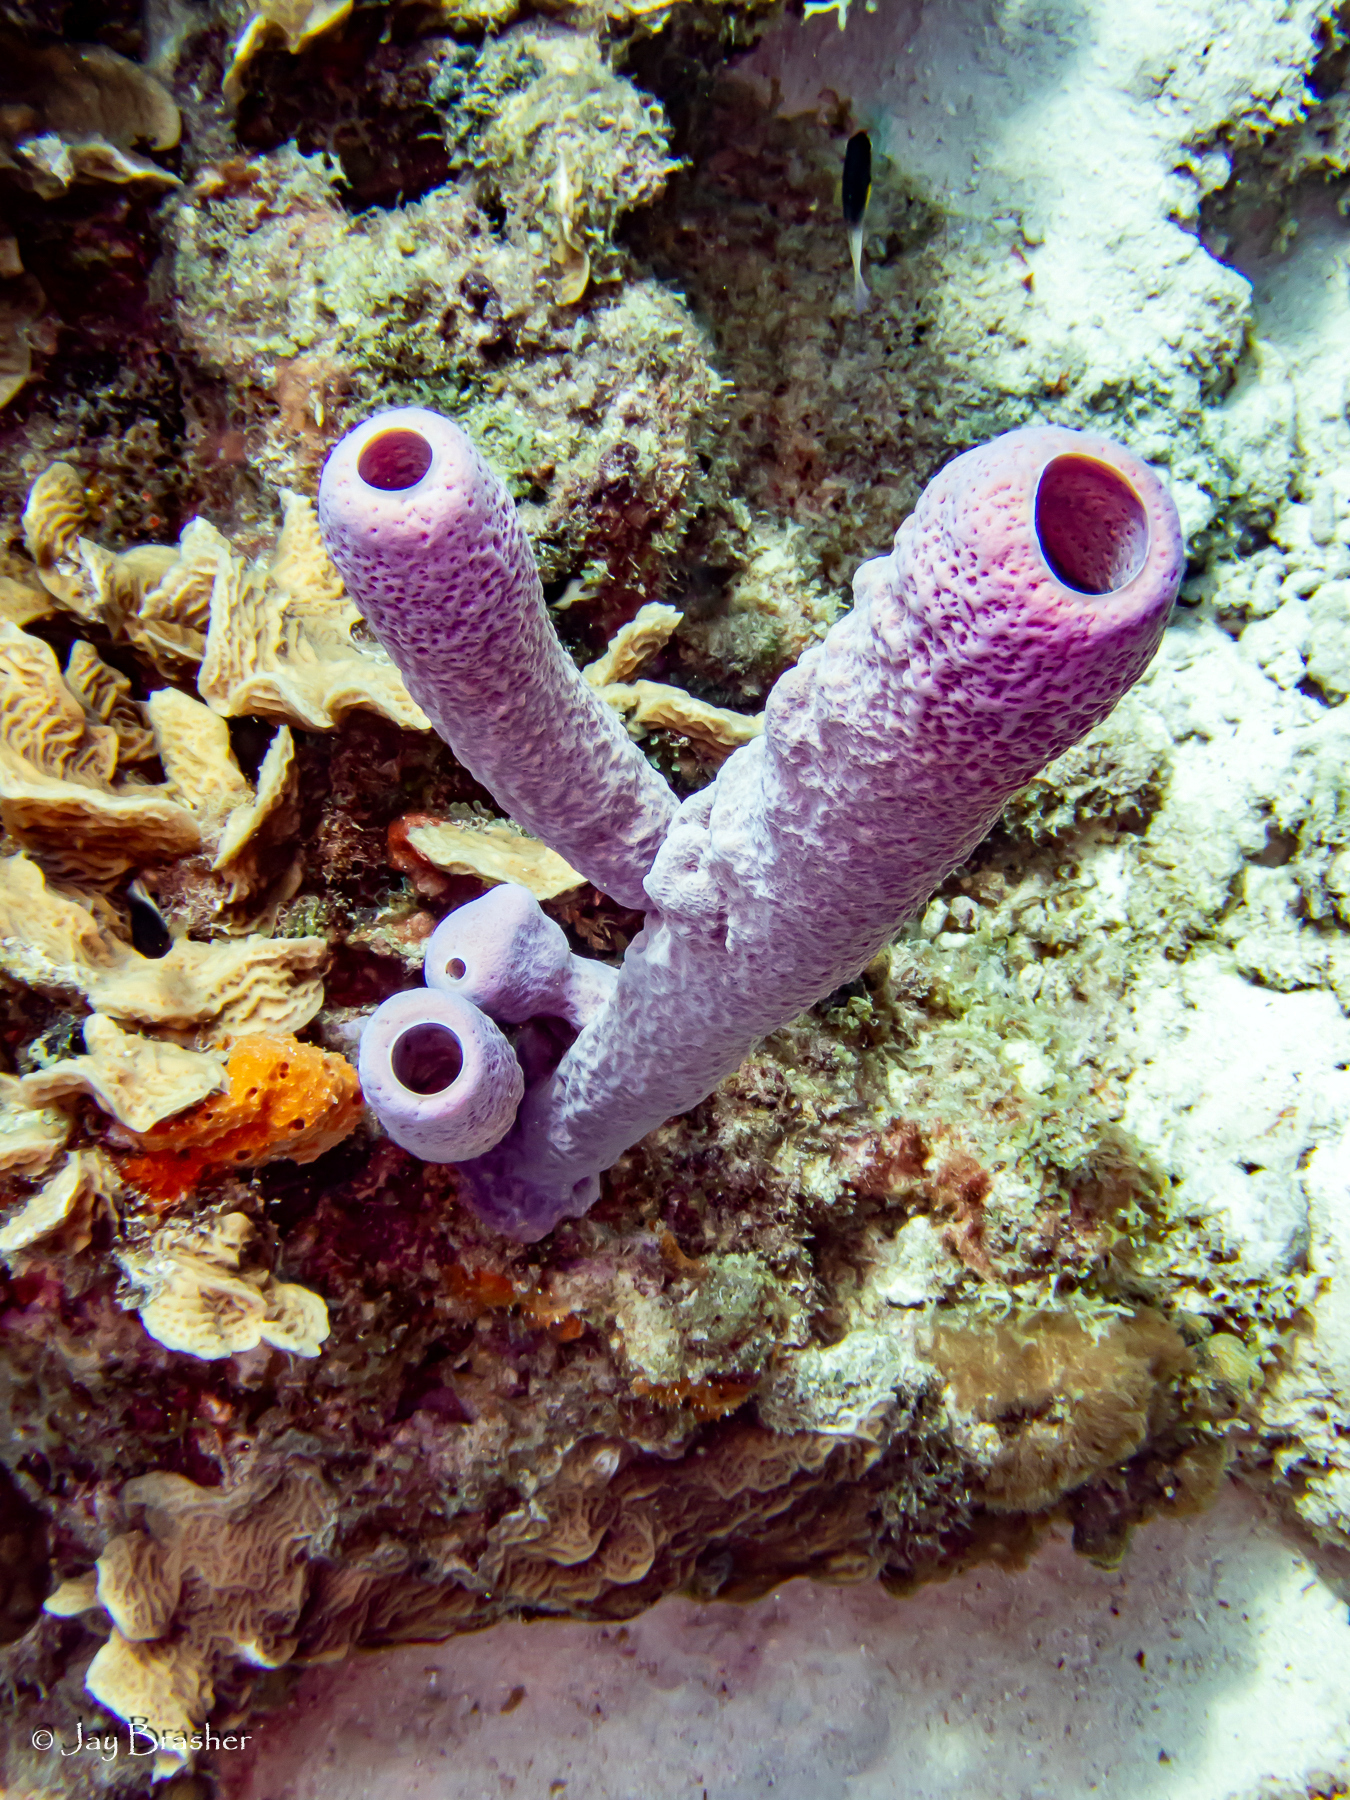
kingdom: Animalia
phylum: Porifera
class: Demospongiae
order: Verongiida
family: Aplysinidae
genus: Aplysina
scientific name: Aplysina archeri
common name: Stove-pipe sponge
